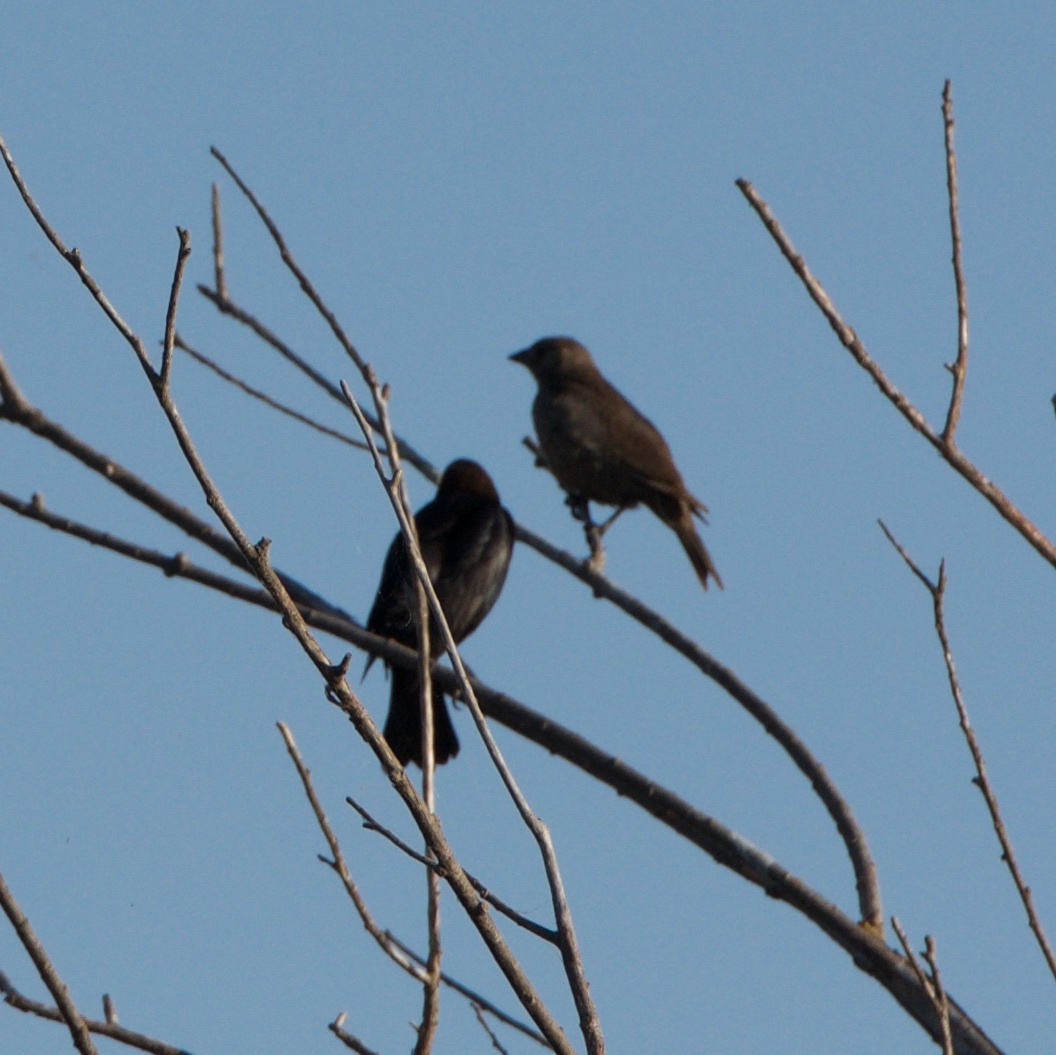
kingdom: Animalia
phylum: Chordata
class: Aves
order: Passeriformes
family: Icteridae
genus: Molothrus
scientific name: Molothrus ater
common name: Brown-headed cowbird
